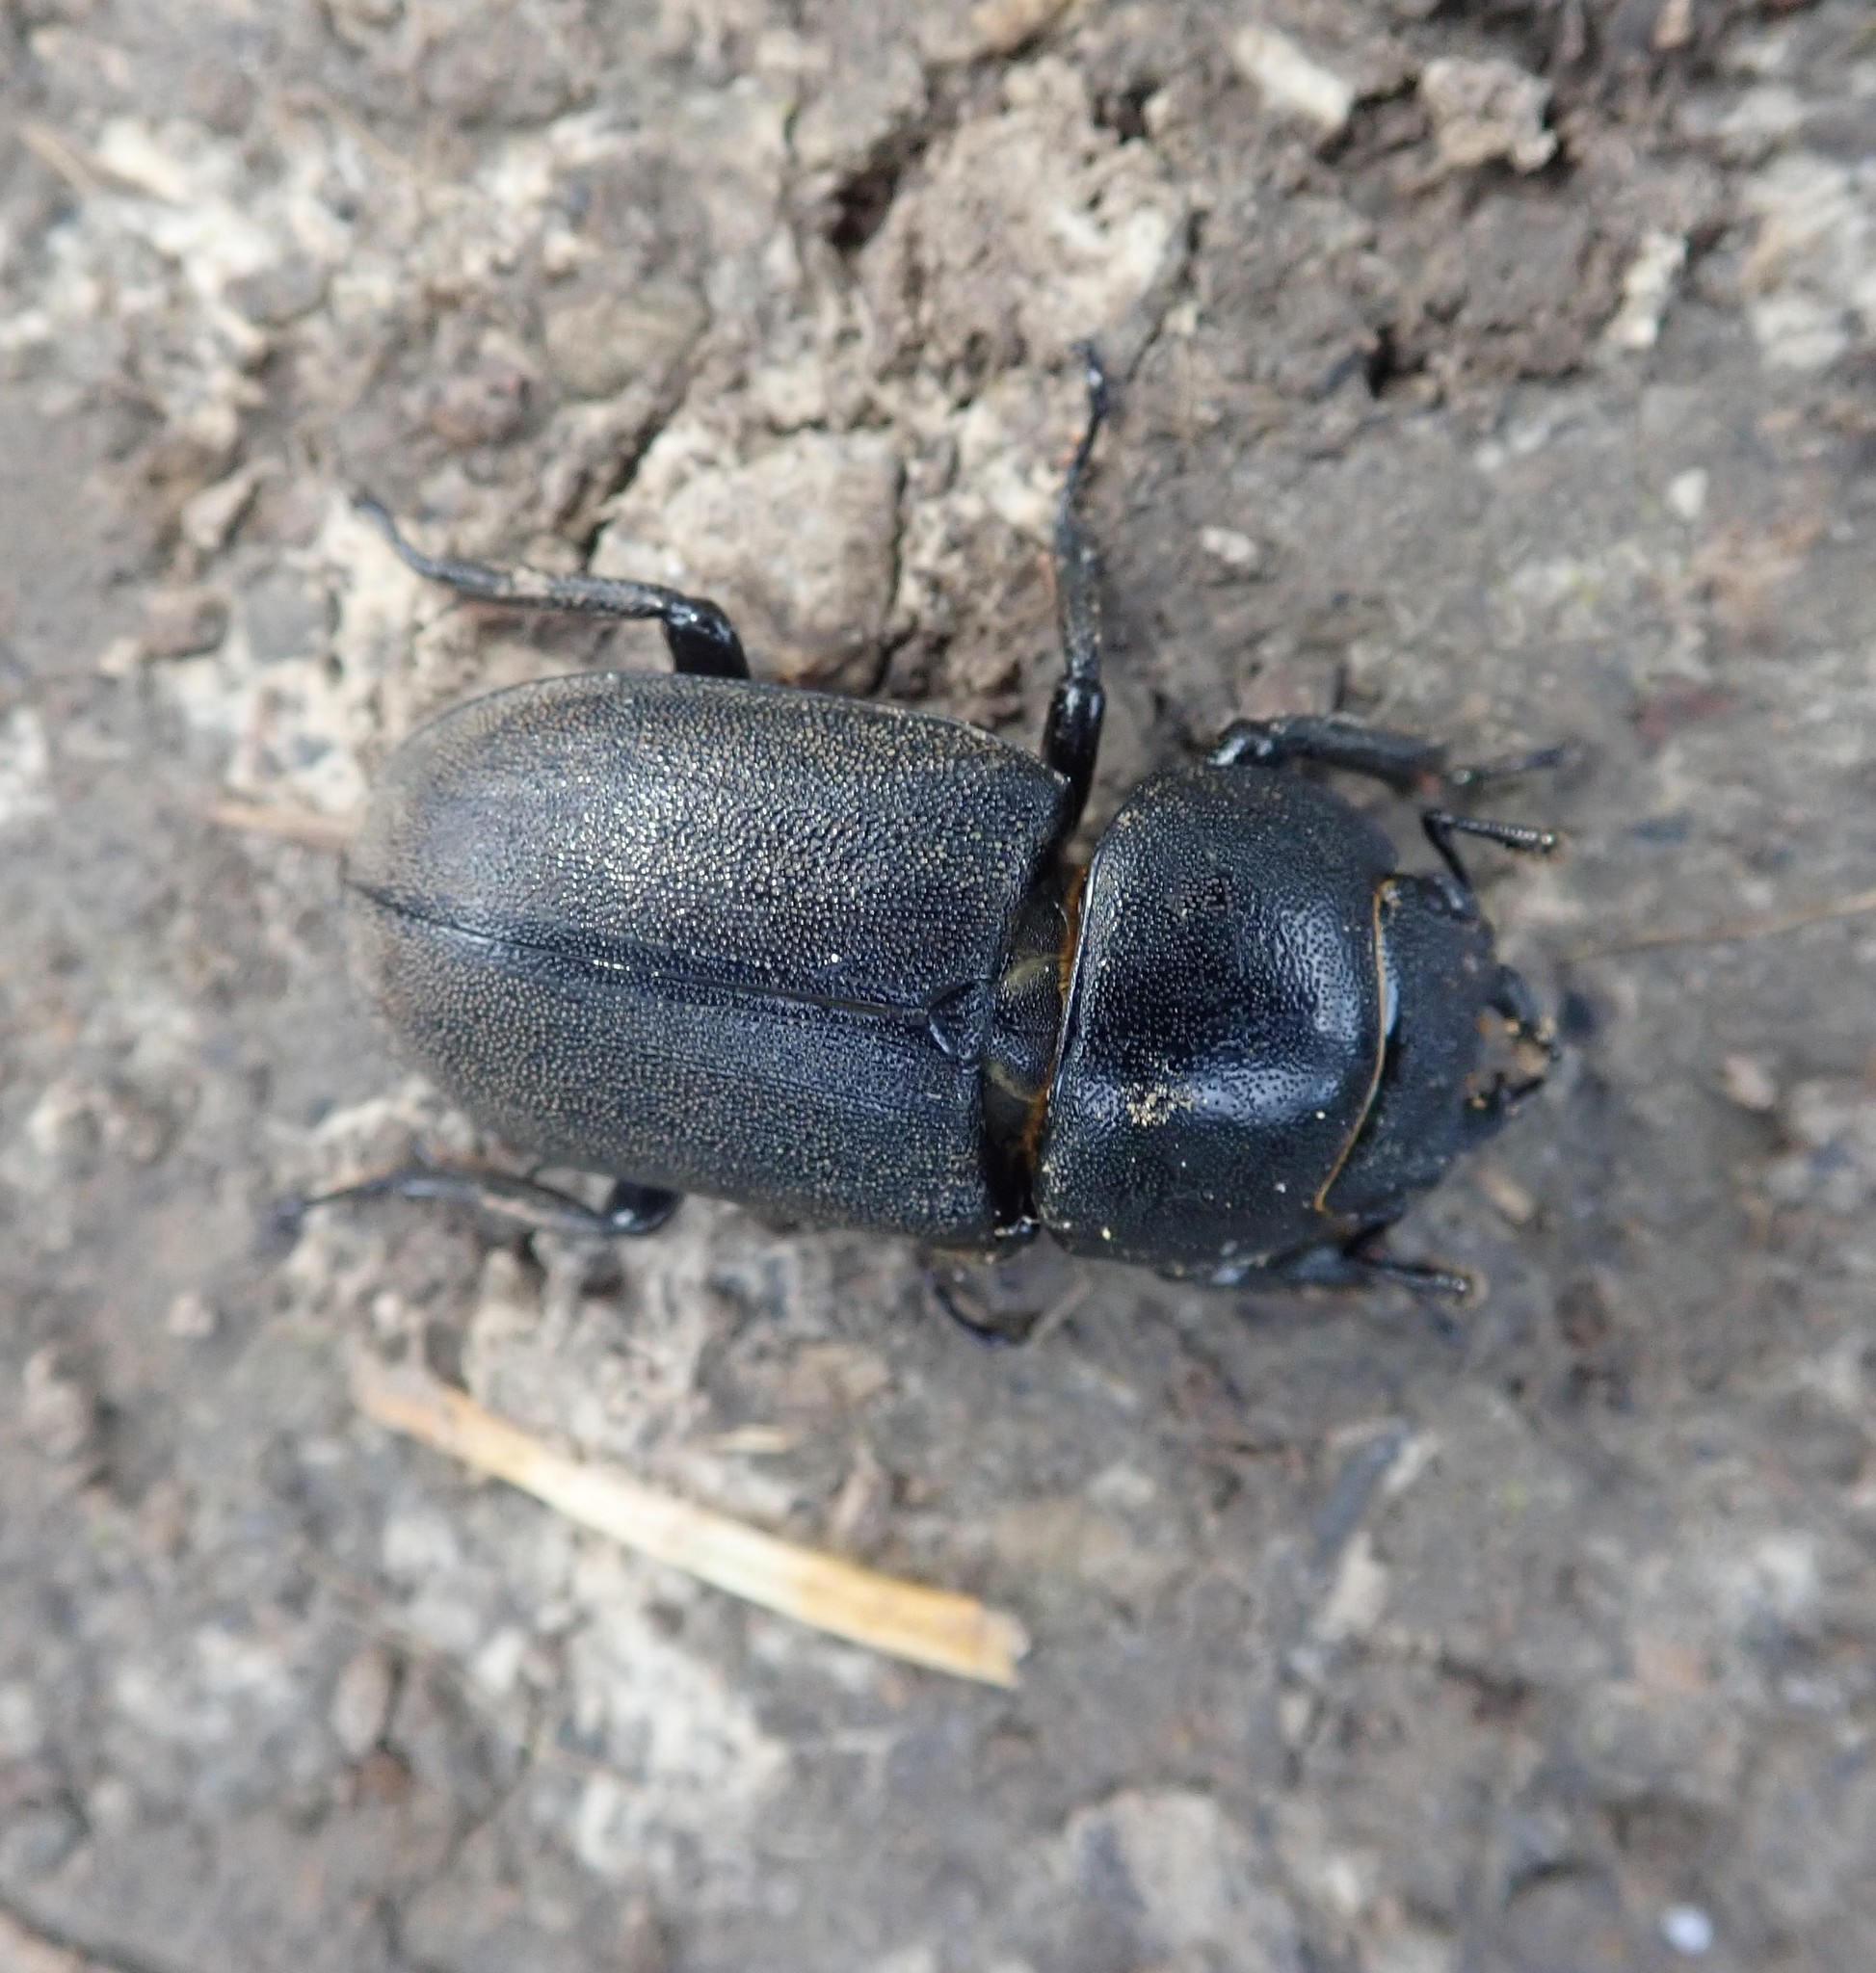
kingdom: Animalia
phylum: Arthropoda
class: Insecta
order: Coleoptera
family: Lucanidae
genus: Dorcus
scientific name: Dorcus parallelipipedus
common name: Lesser stag beetle
